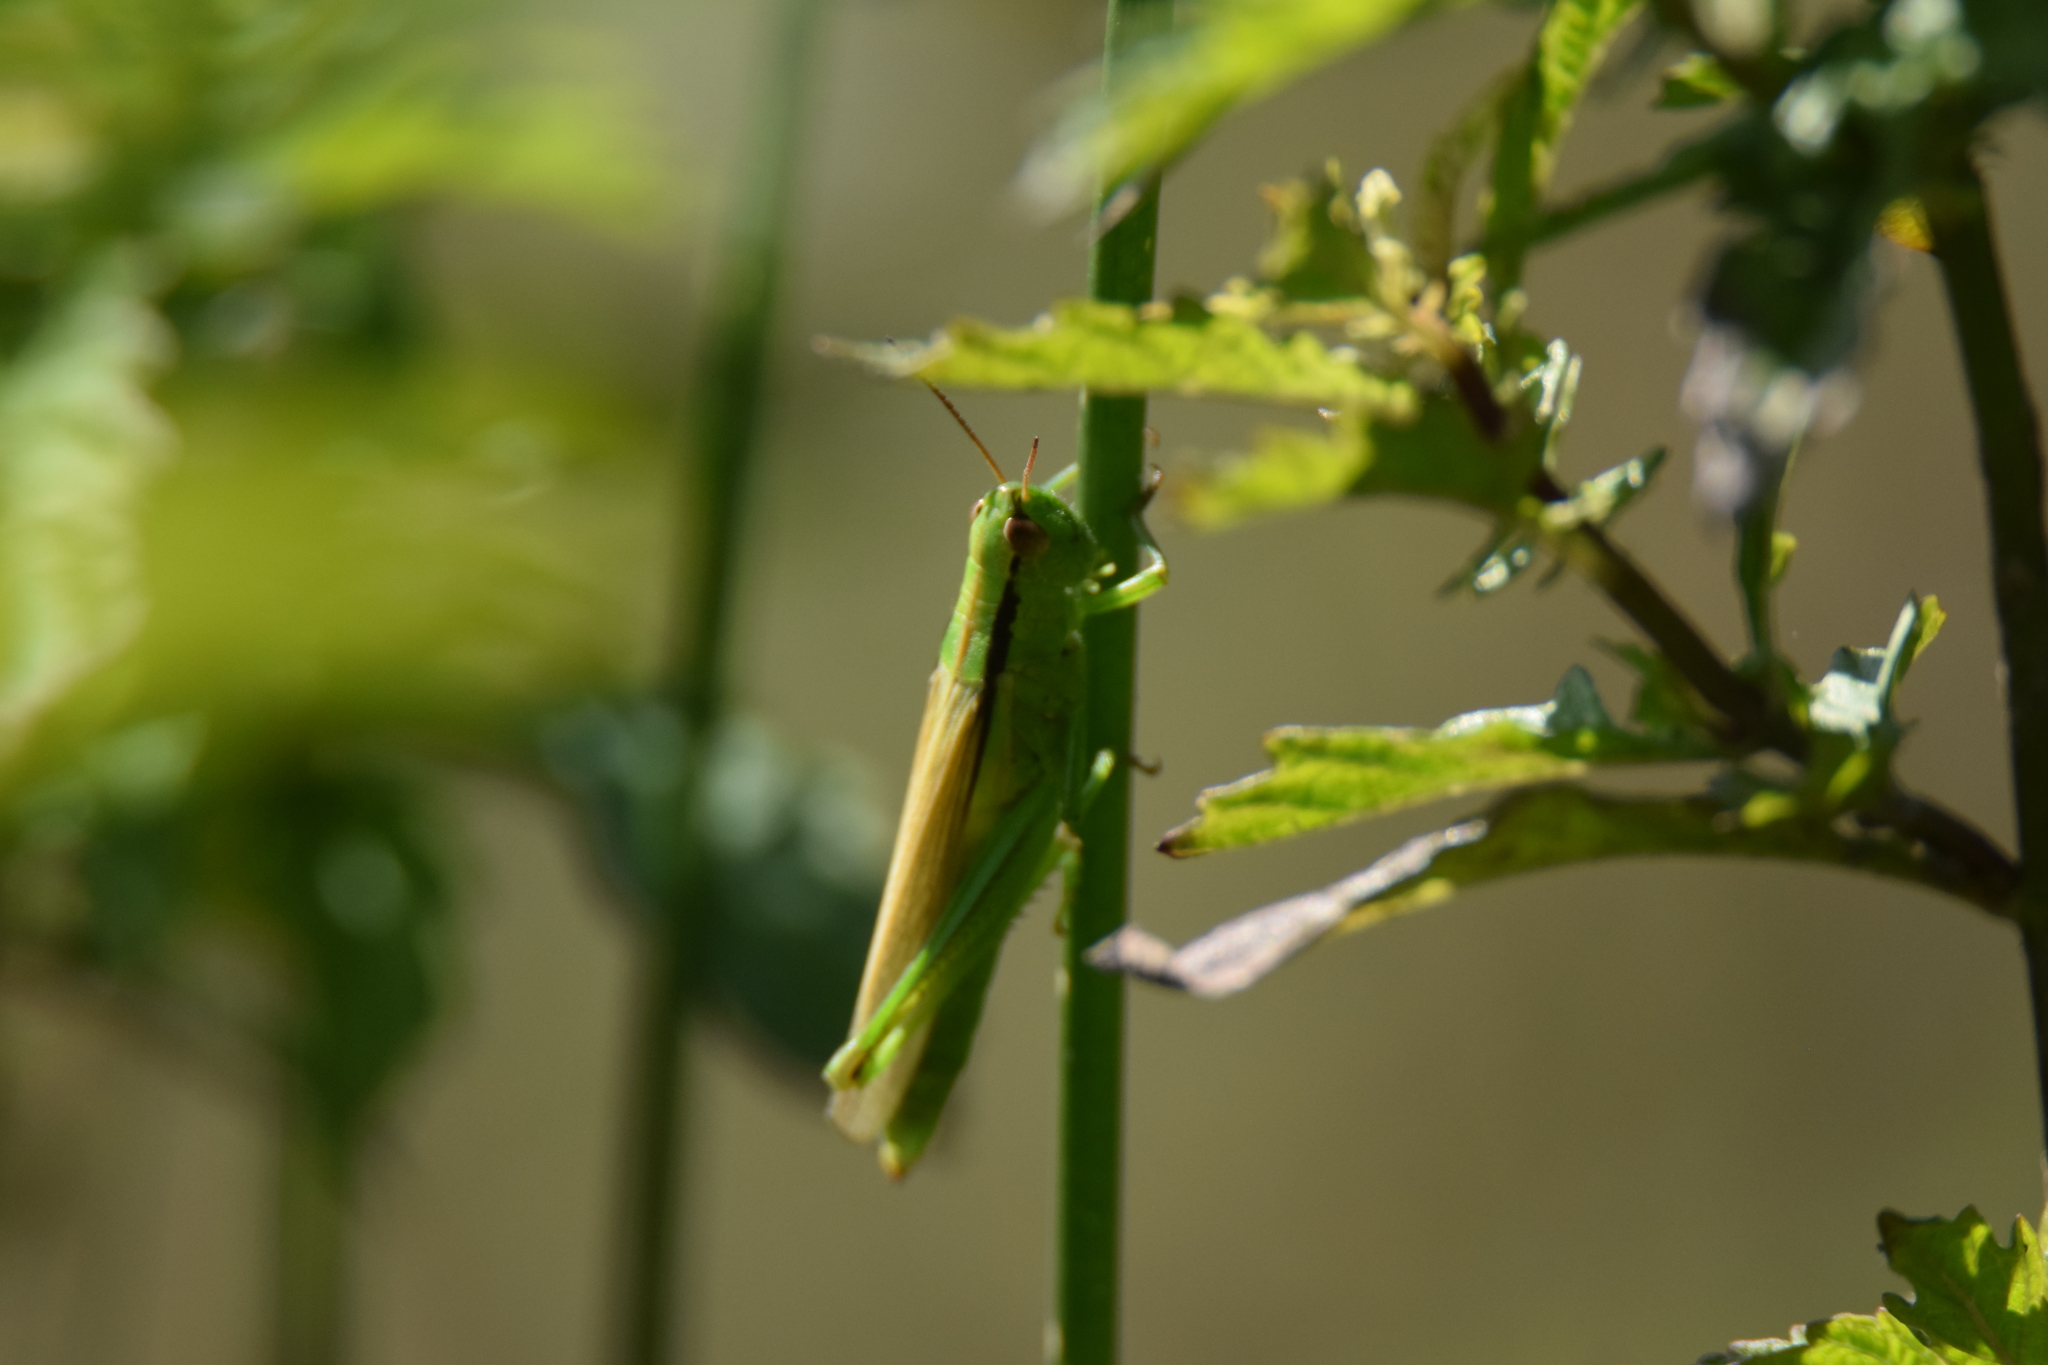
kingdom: Animalia
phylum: Arthropoda
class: Insecta
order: Orthoptera
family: Acrididae
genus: Mecostethus
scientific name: Mecostethus parapleurus
